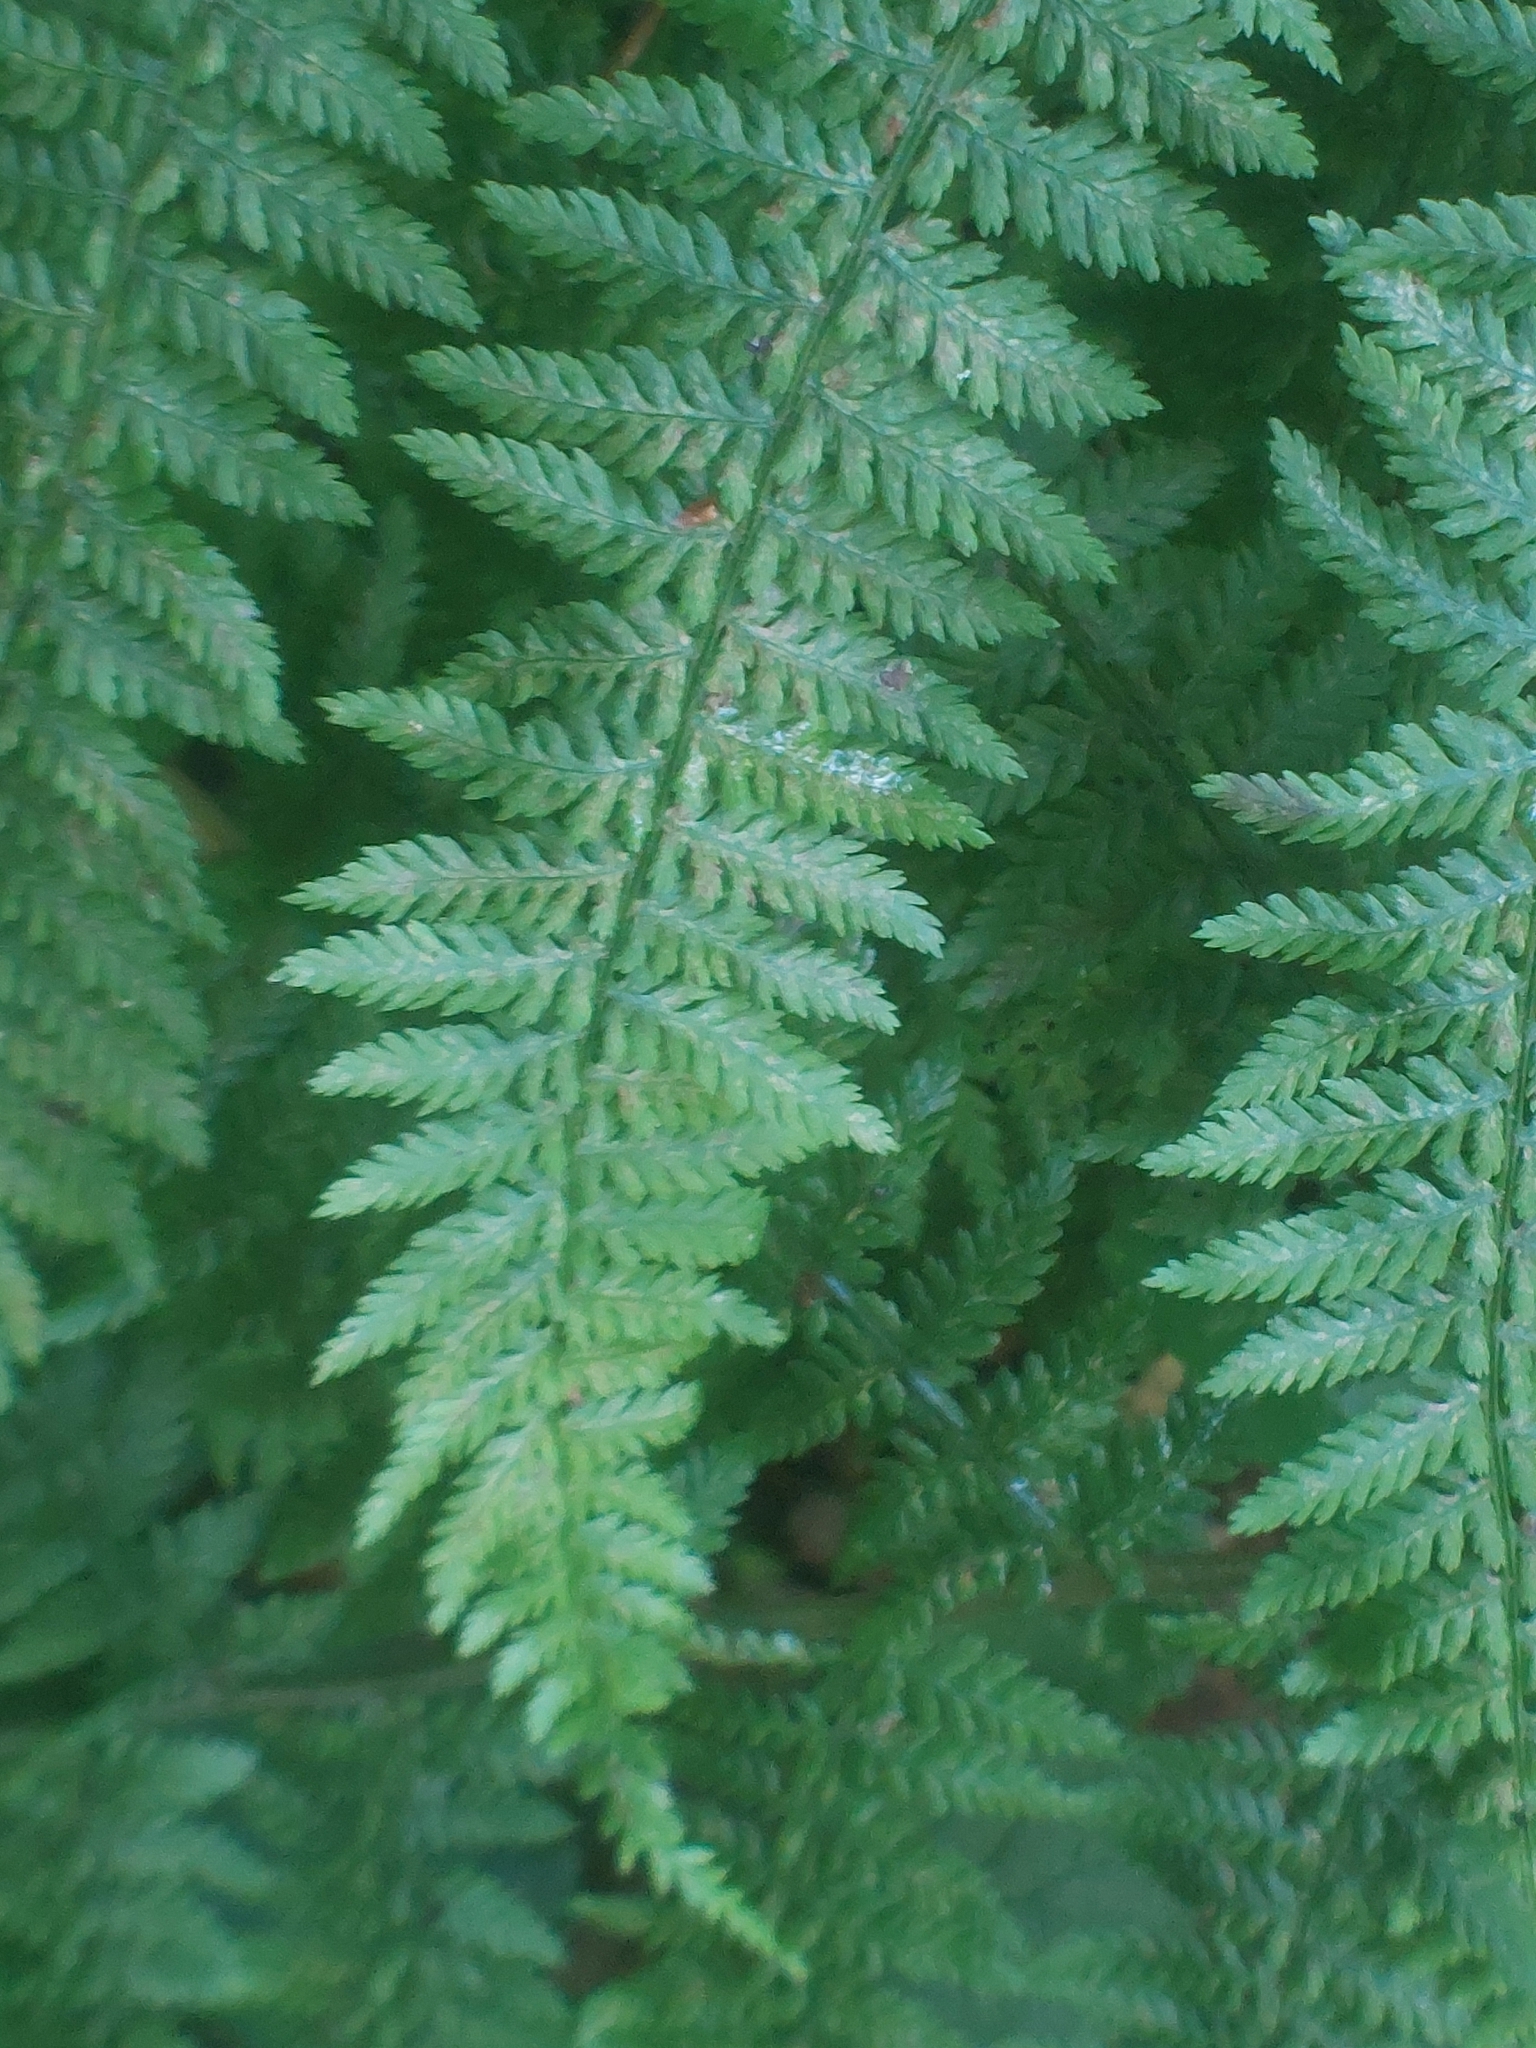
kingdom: Plantae
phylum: Tracheophyta
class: Polypodiopsida
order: Polypodiales
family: Athyriaceae
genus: Athyrium
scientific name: Athyrium filix-femina
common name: Lady fern
